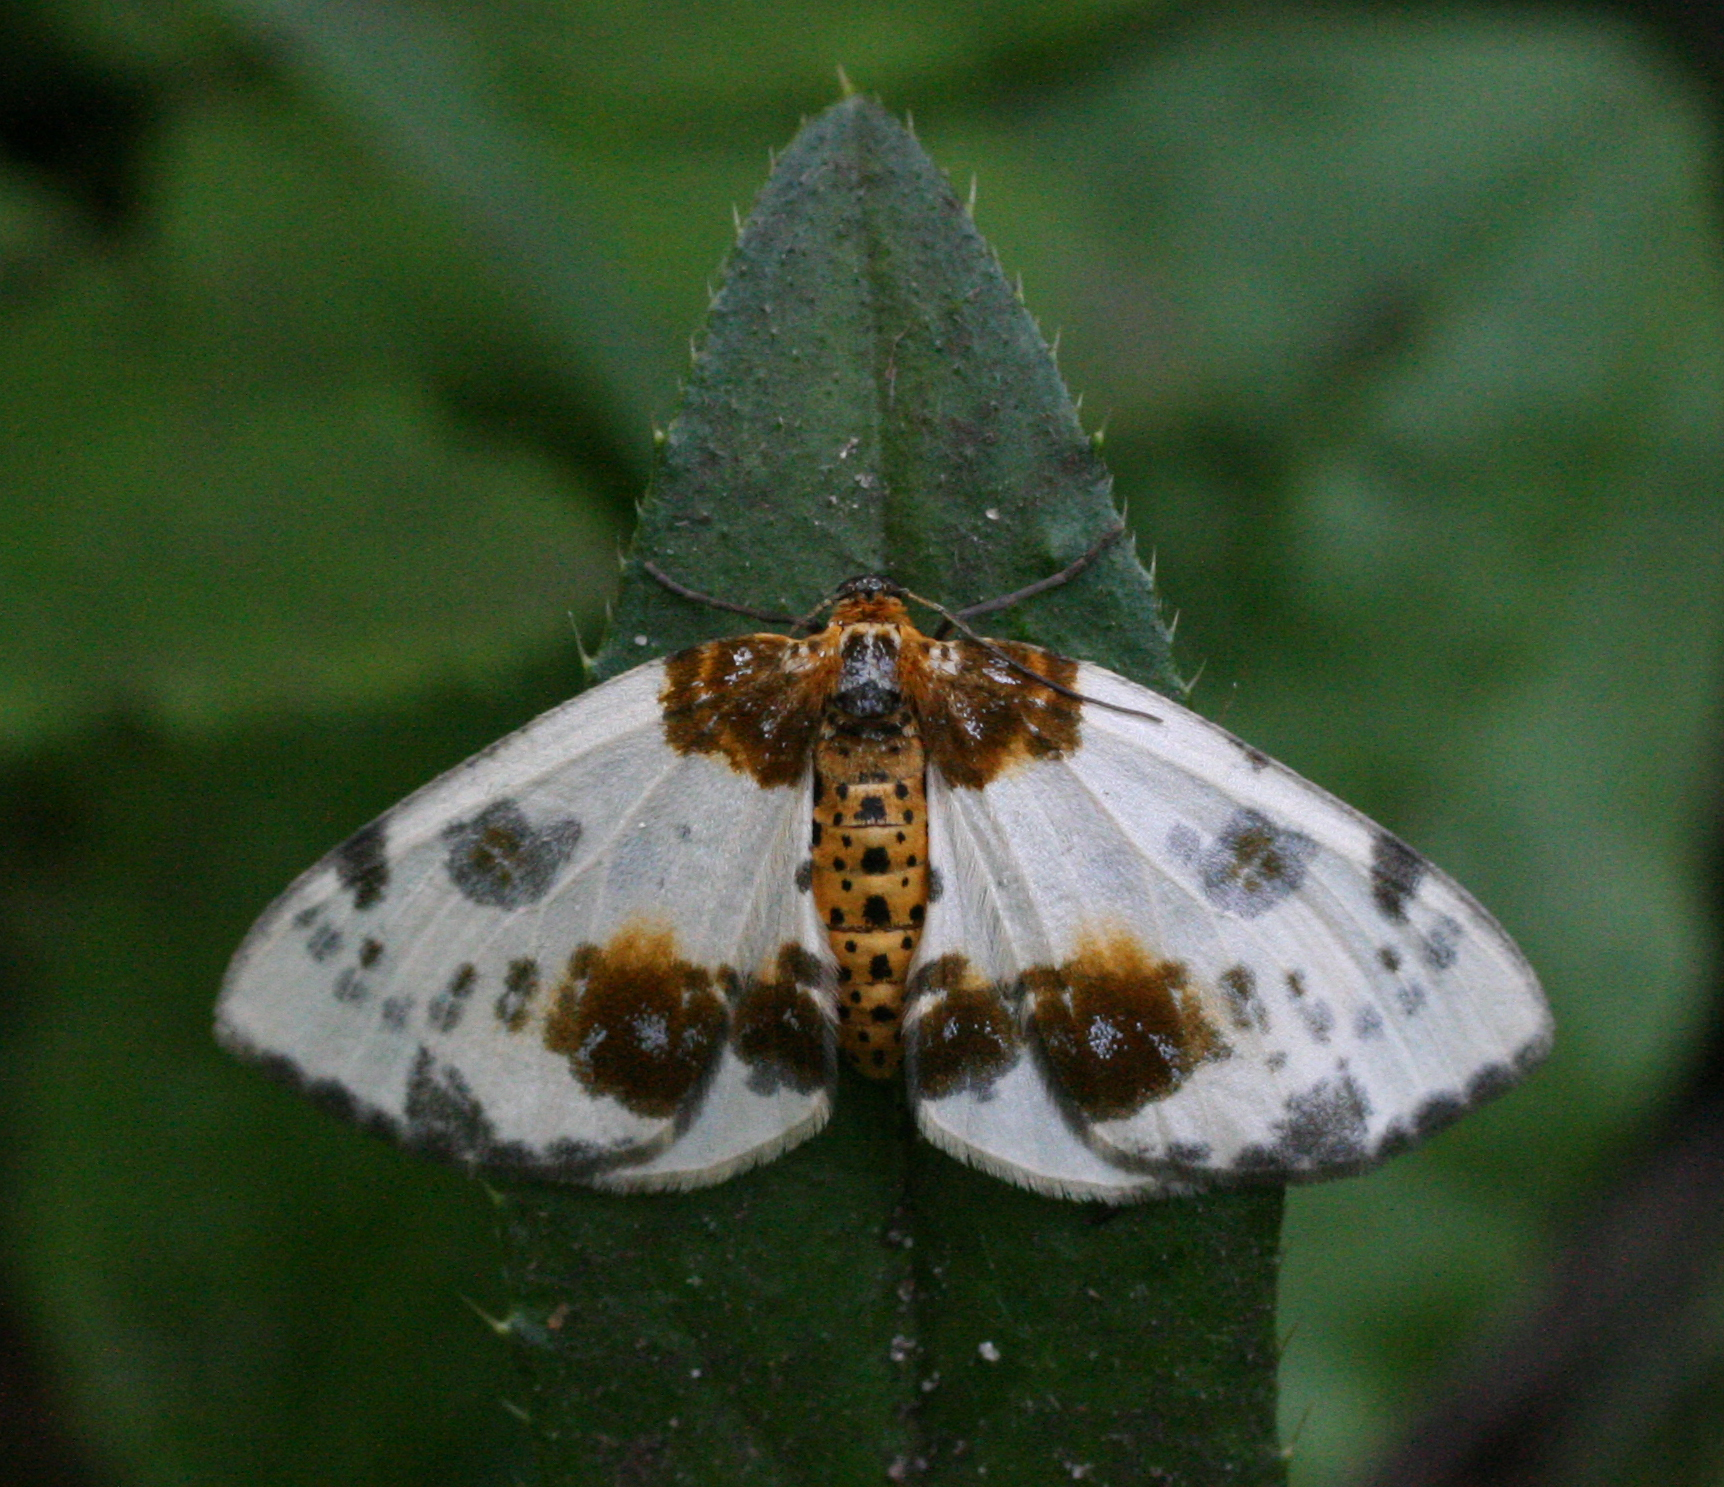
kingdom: Animalia
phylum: Arthropoda
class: Insecta
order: Lepidoptera
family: Geometridae
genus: Abraxas
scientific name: Abraxas sylvata
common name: Clouded magpie
